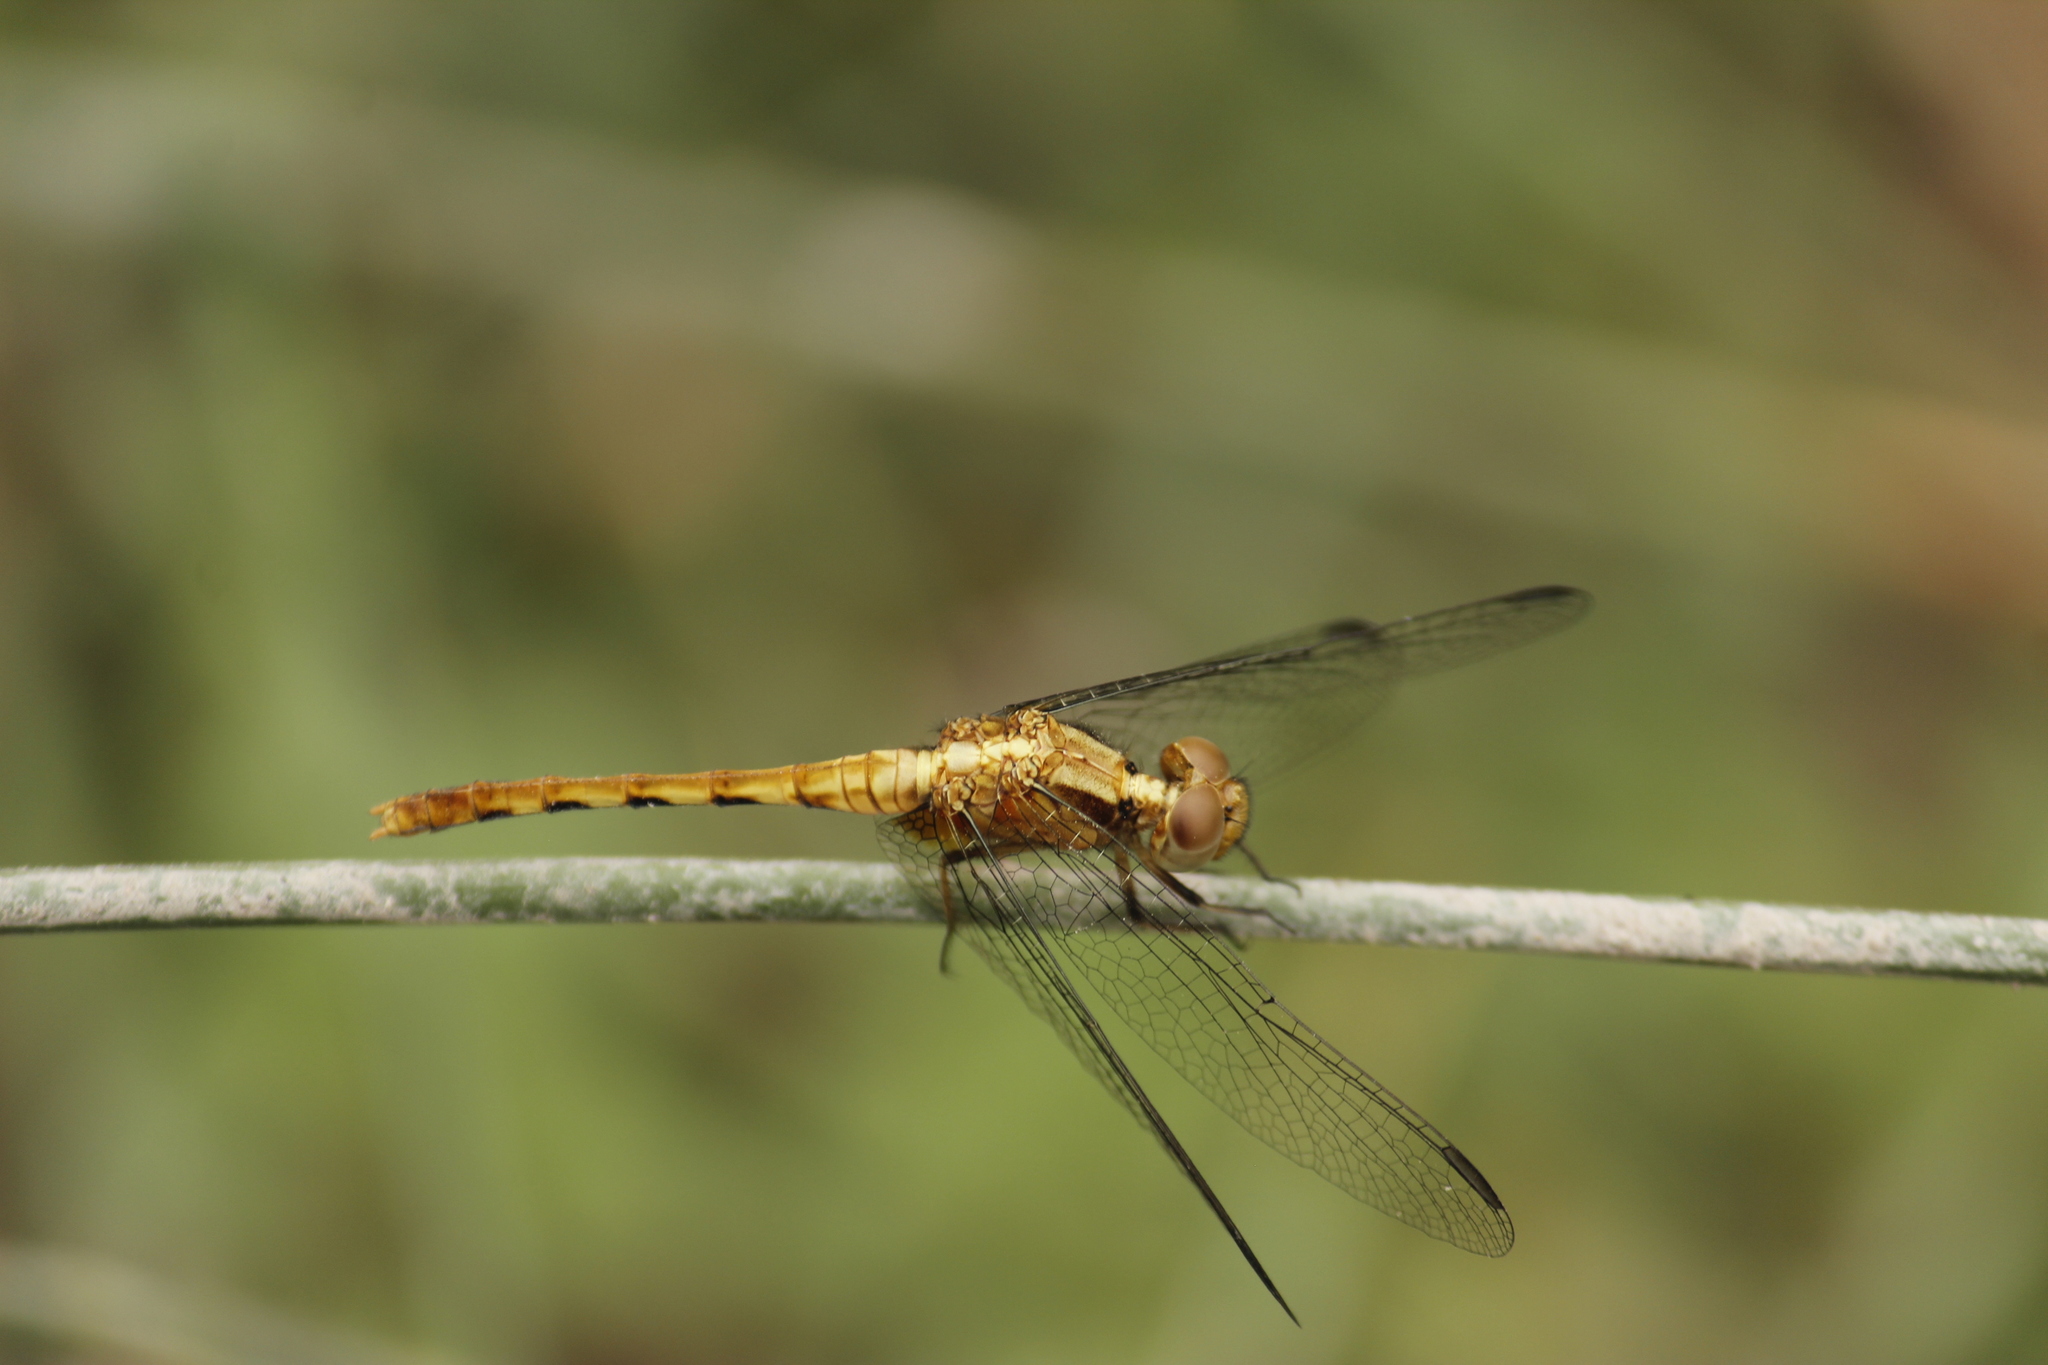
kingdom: Animalia
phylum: Arthropoda
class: Insecta
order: Odonata
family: Libellulidae
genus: Erythrodiplax
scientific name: Erythrodiplax cleopatra
